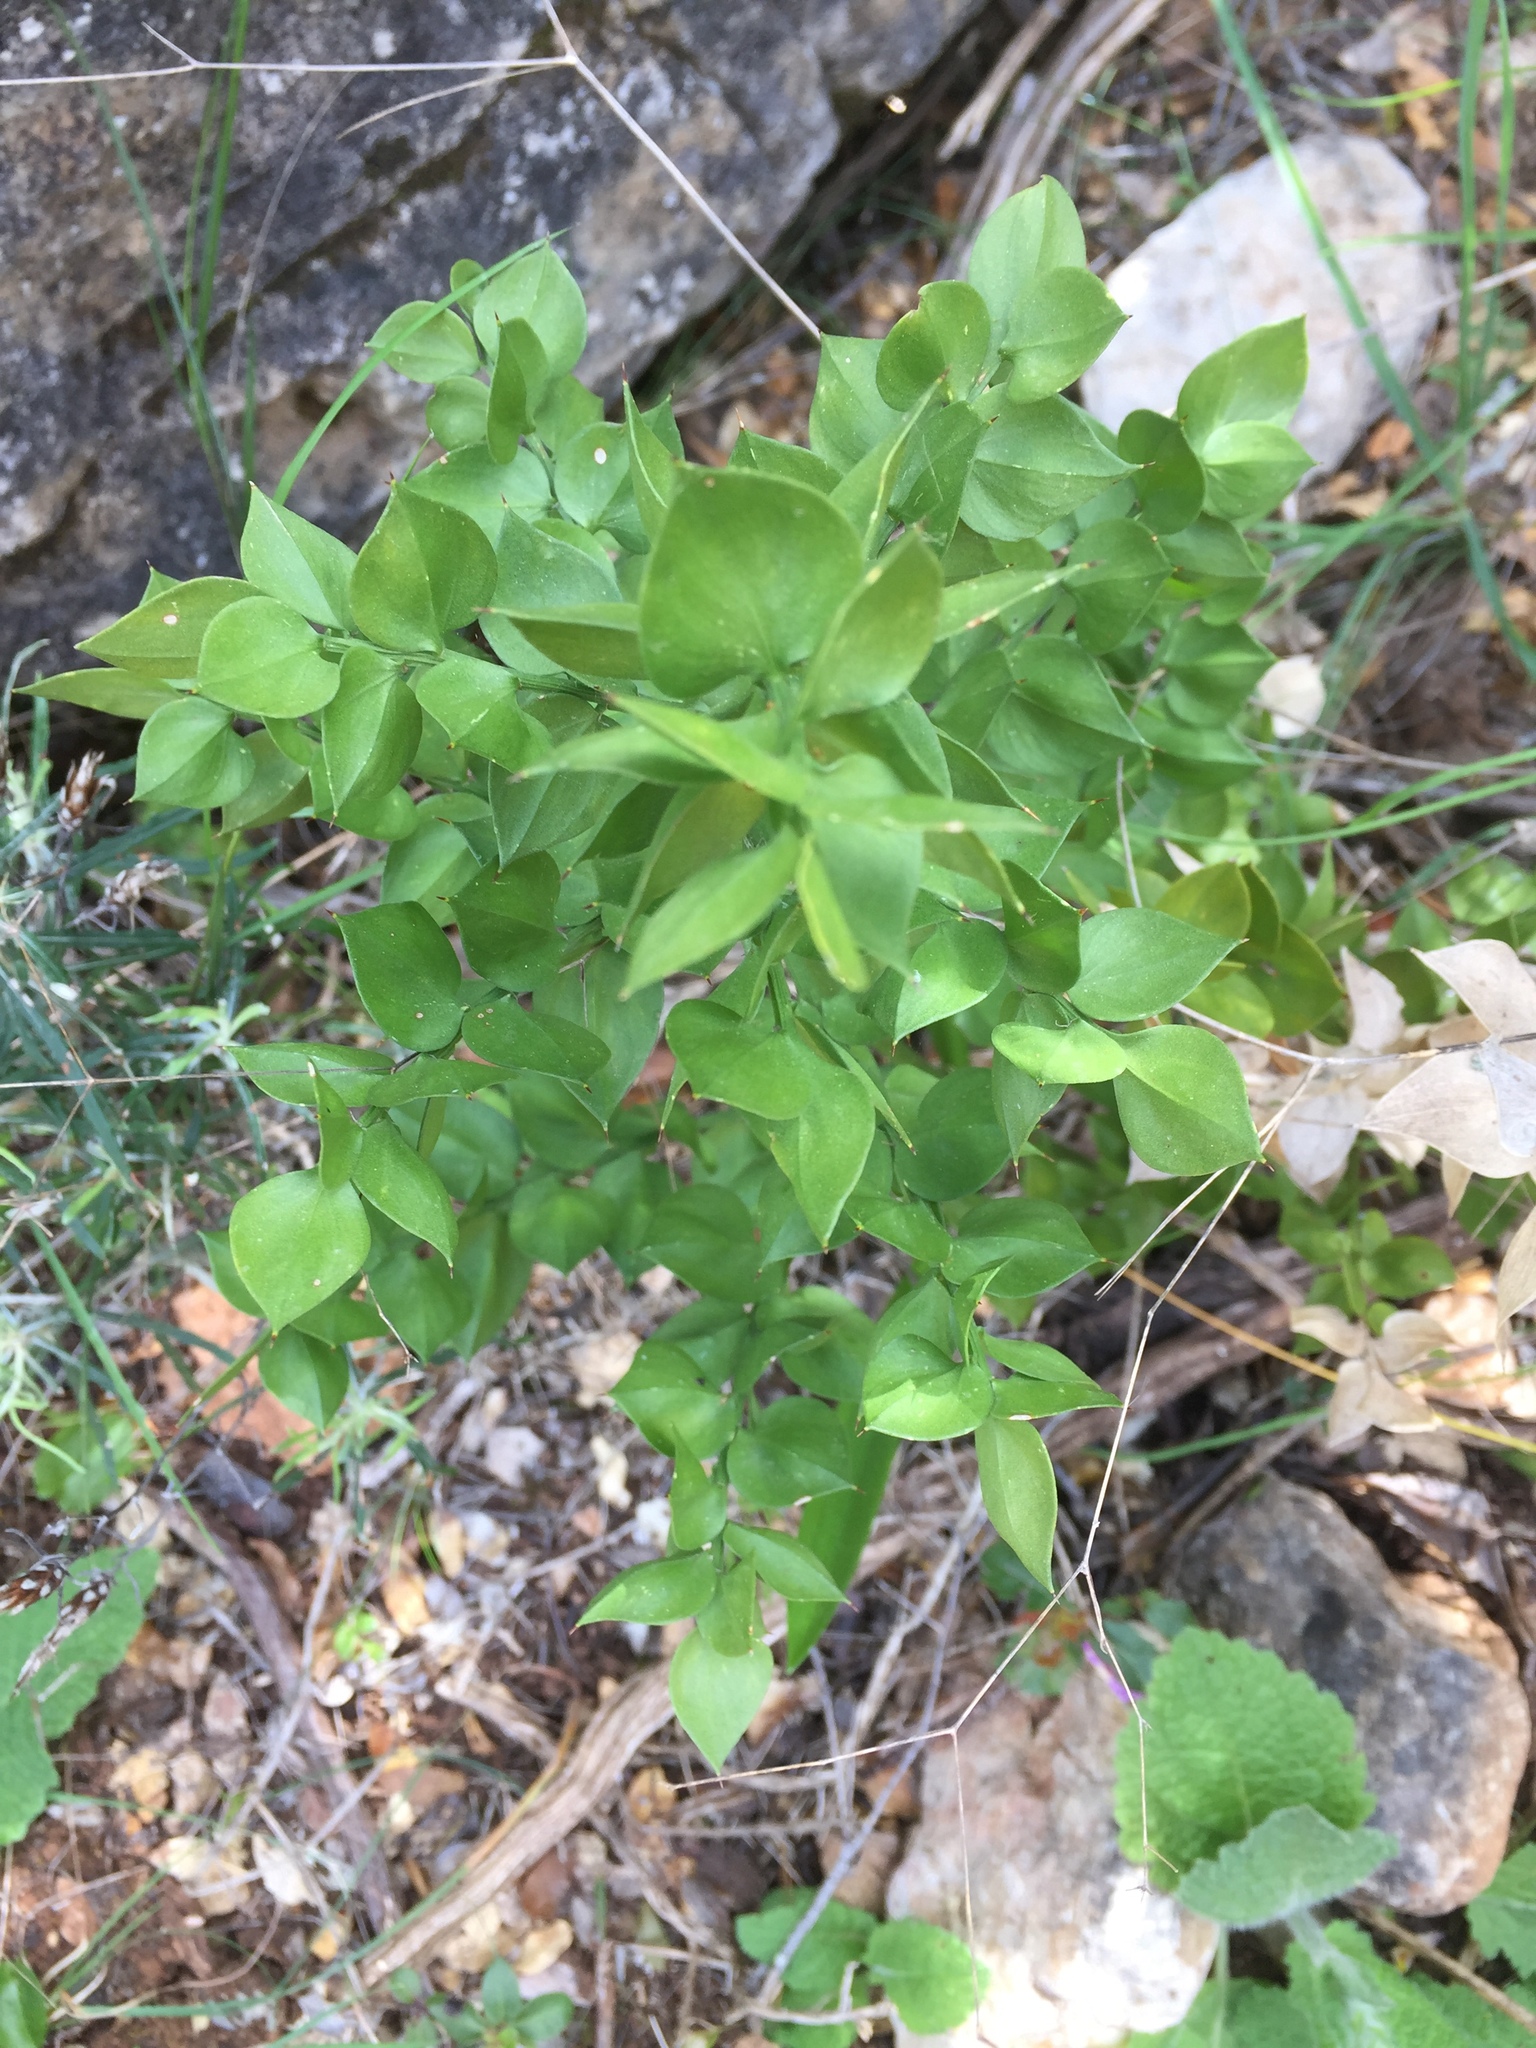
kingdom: Plantae
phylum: Tracheophyta
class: Liliopsida
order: Asparagales
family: Asparagaceae
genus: Ruscus
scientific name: Ruscus aculeatus
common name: Butcher's-broom
